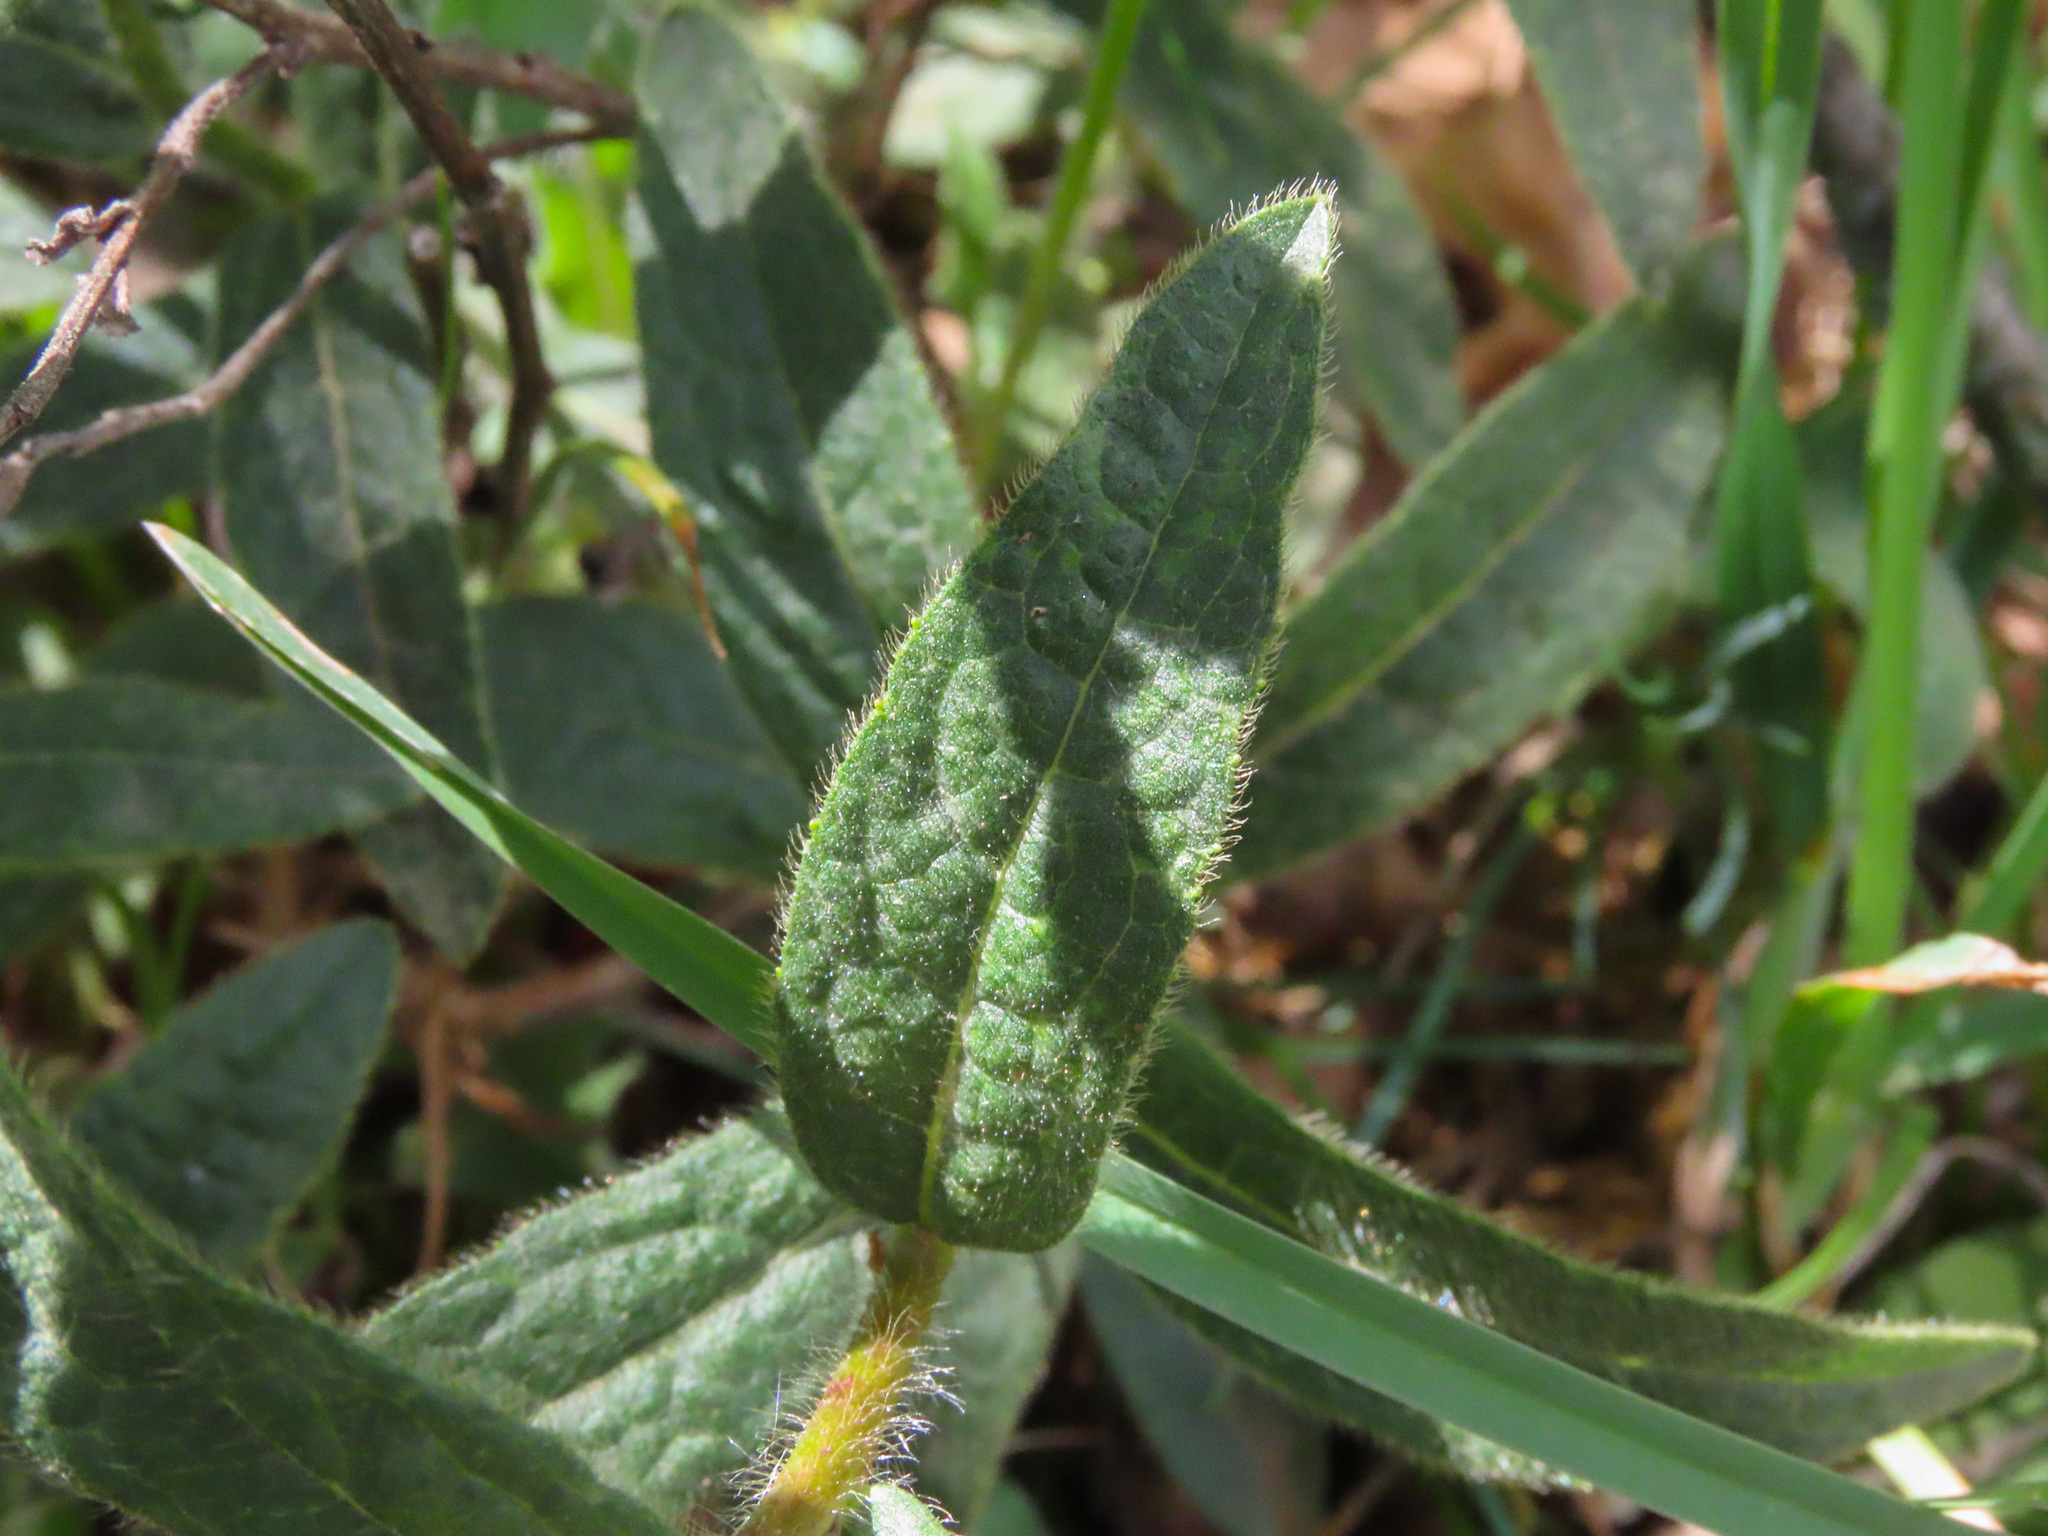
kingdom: Plantae
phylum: Tracheophyta
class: Magnoliopsida
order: Asterales
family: Asteraceae
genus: Pentanema
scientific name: Pentanema hirtum
